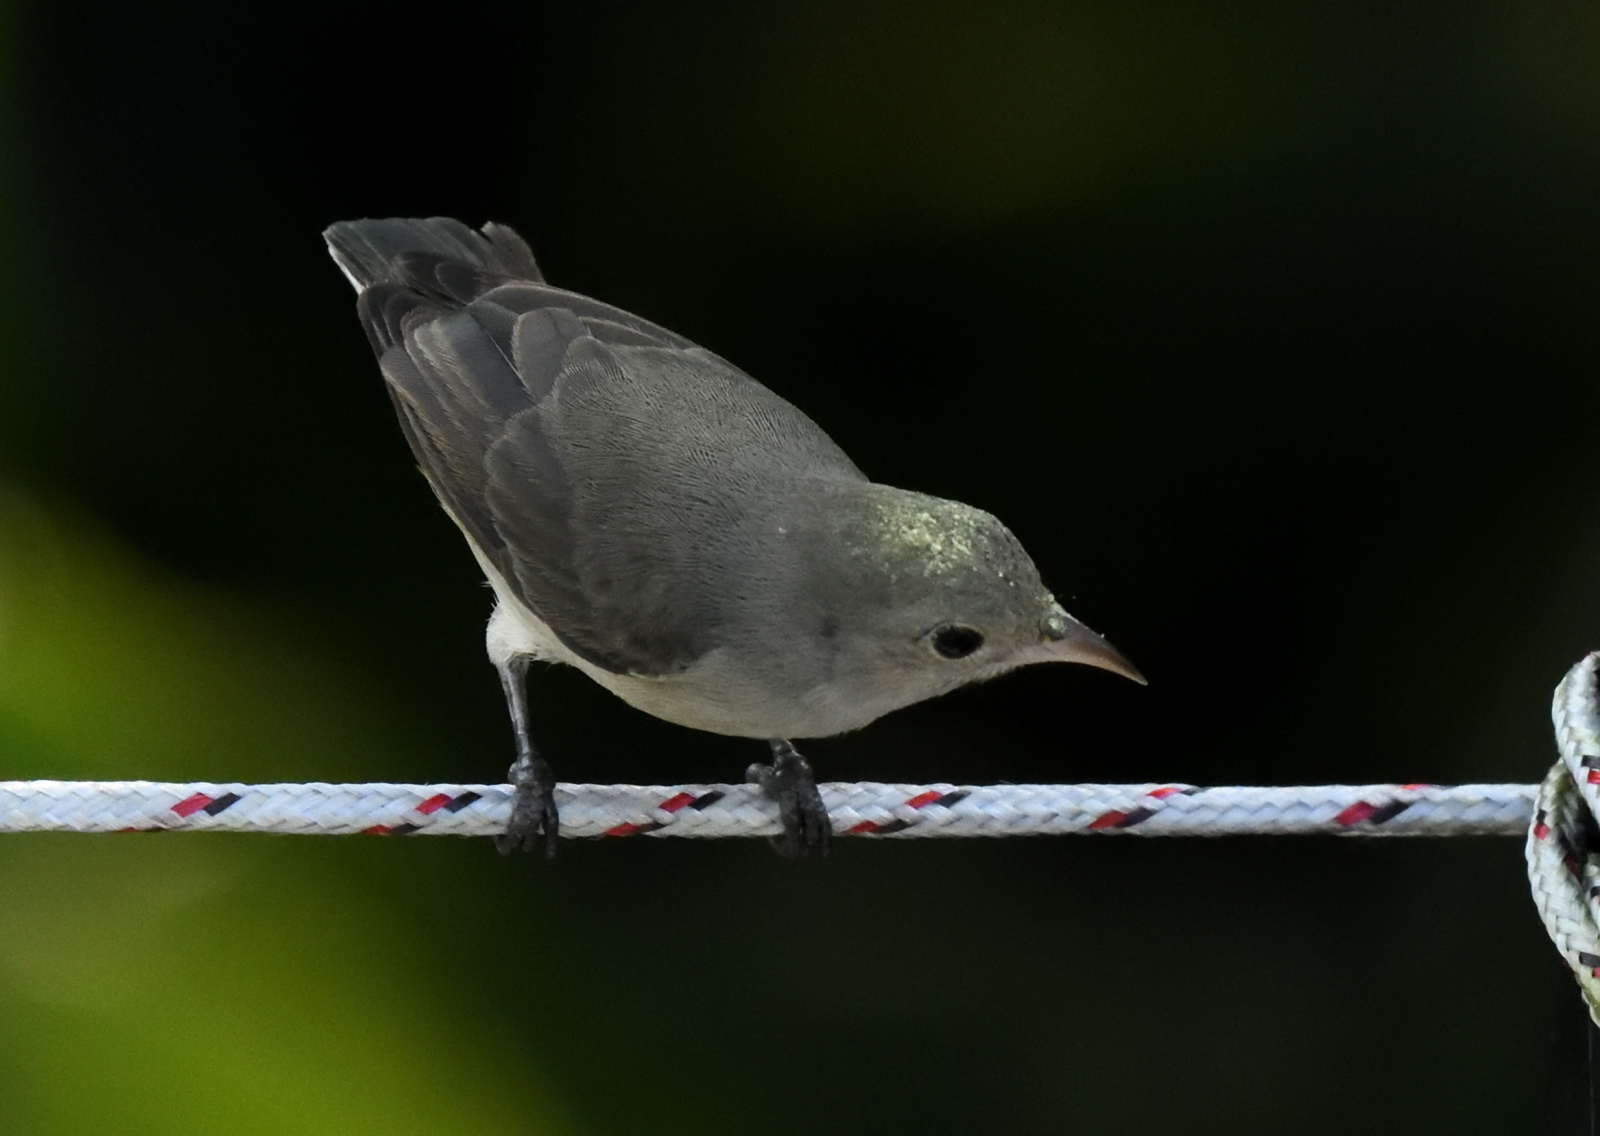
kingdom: Animalia
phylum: Chordata
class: Aves
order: Passeriformes
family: Dicaeidae
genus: Dicaeum
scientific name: Dicaeum erythrorhynchos
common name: Pale-billed flowerpecker
